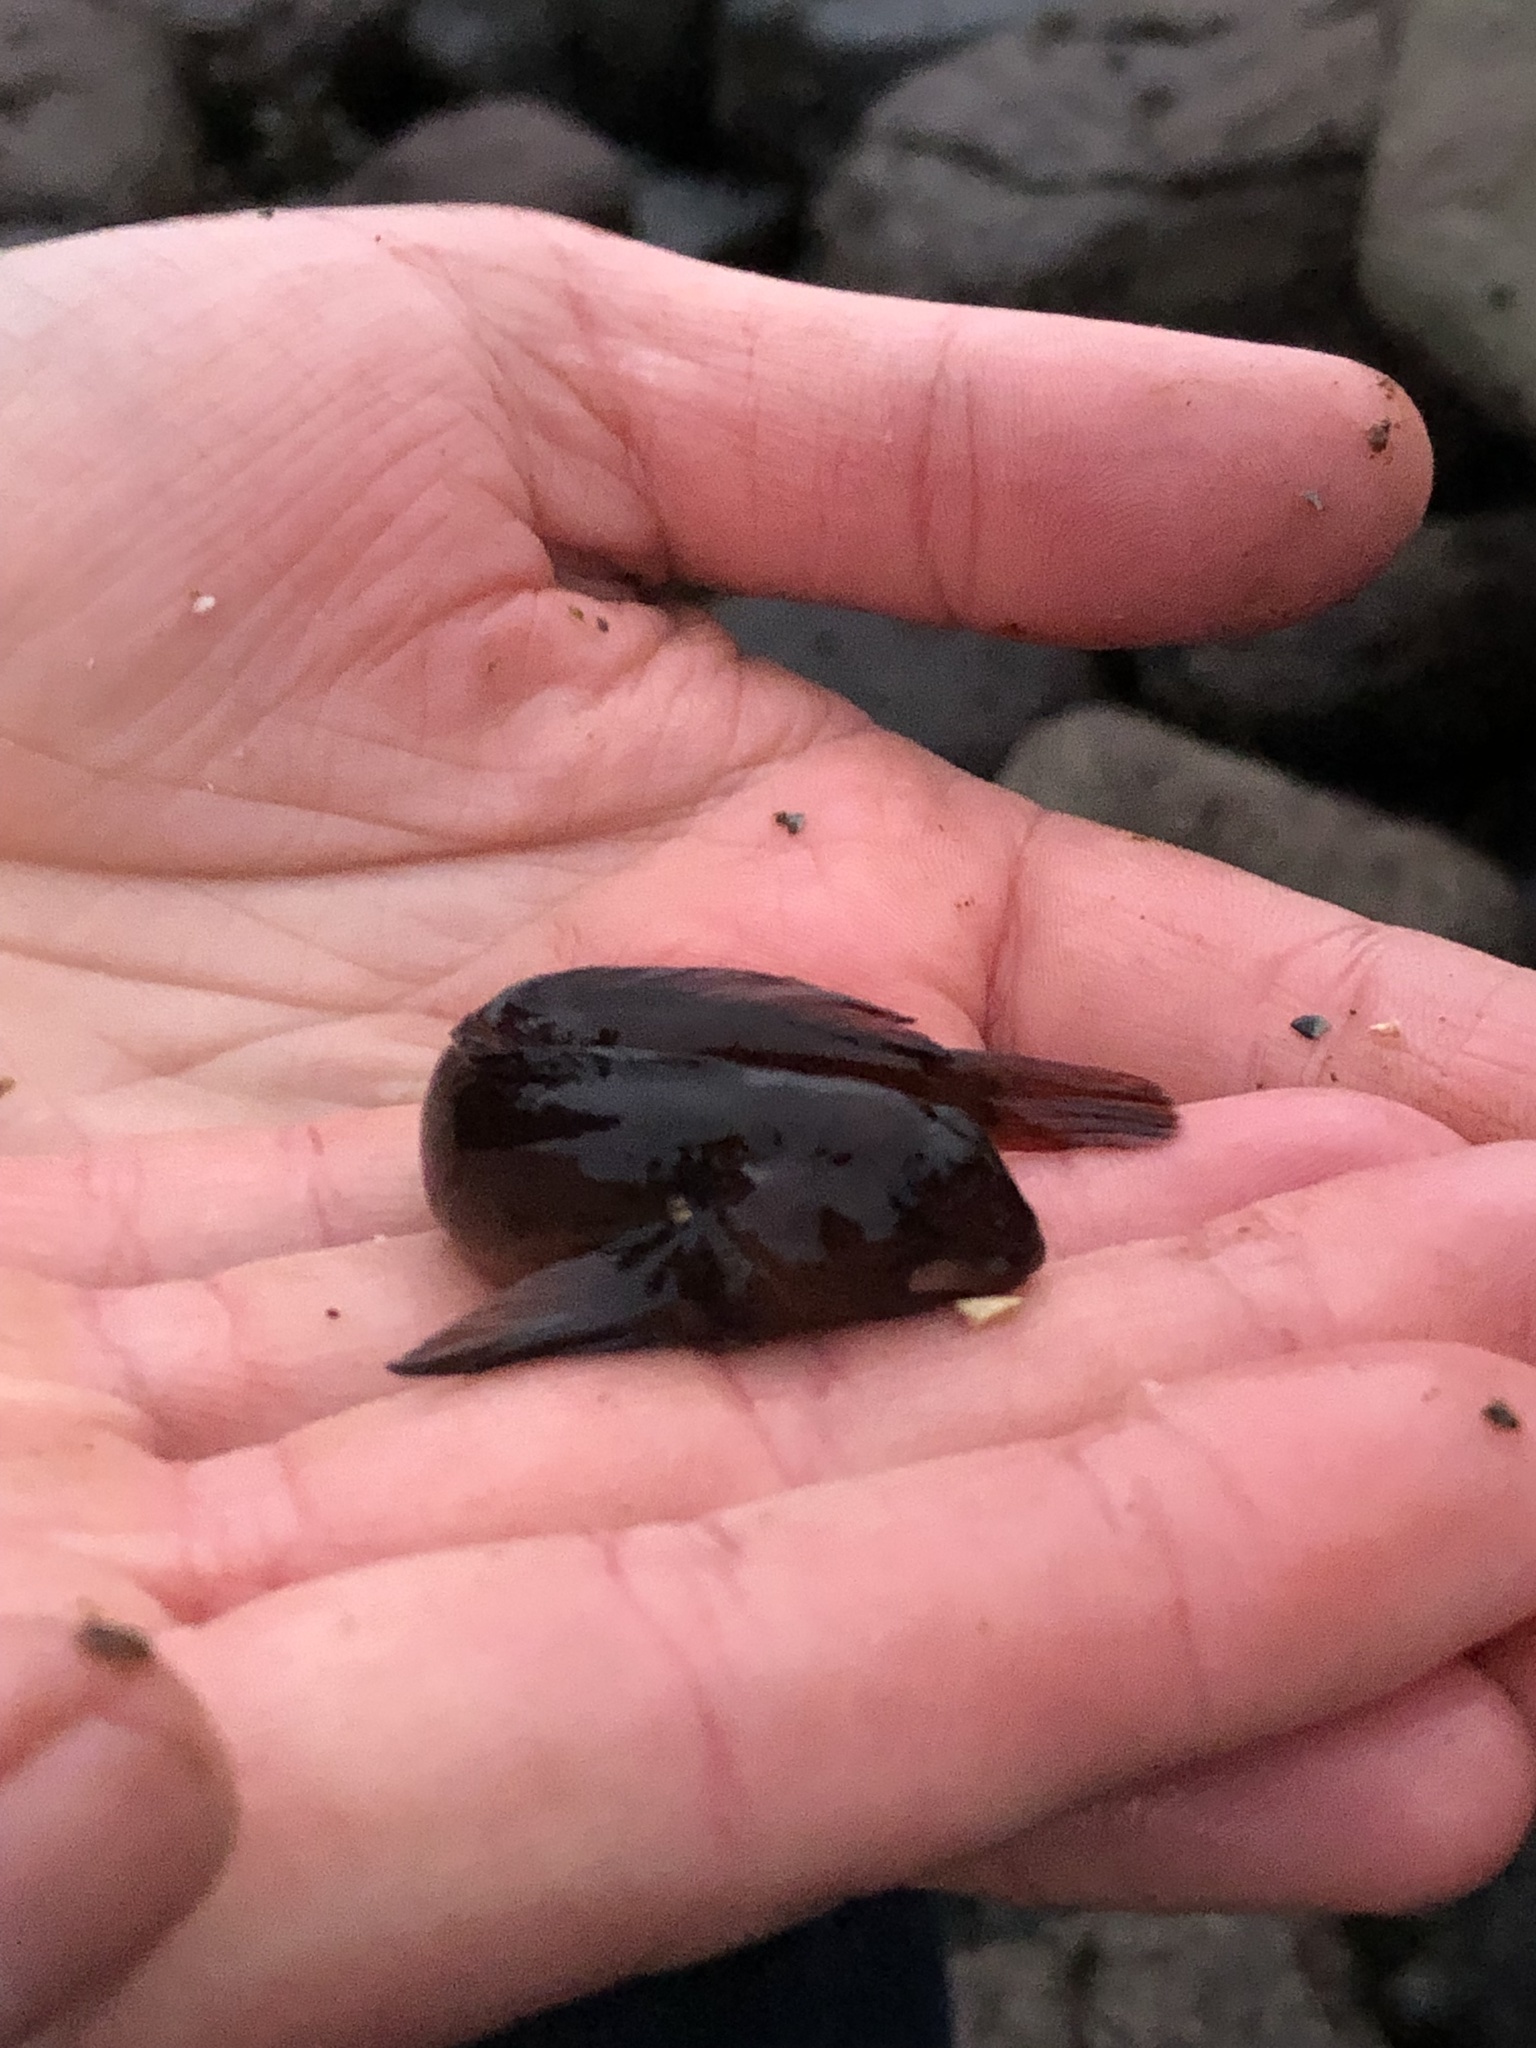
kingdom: Animalia
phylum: Chordata
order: Perciformes
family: Blenniidae
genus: Lipophrys
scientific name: Lipophrys pholis
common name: Shanny
